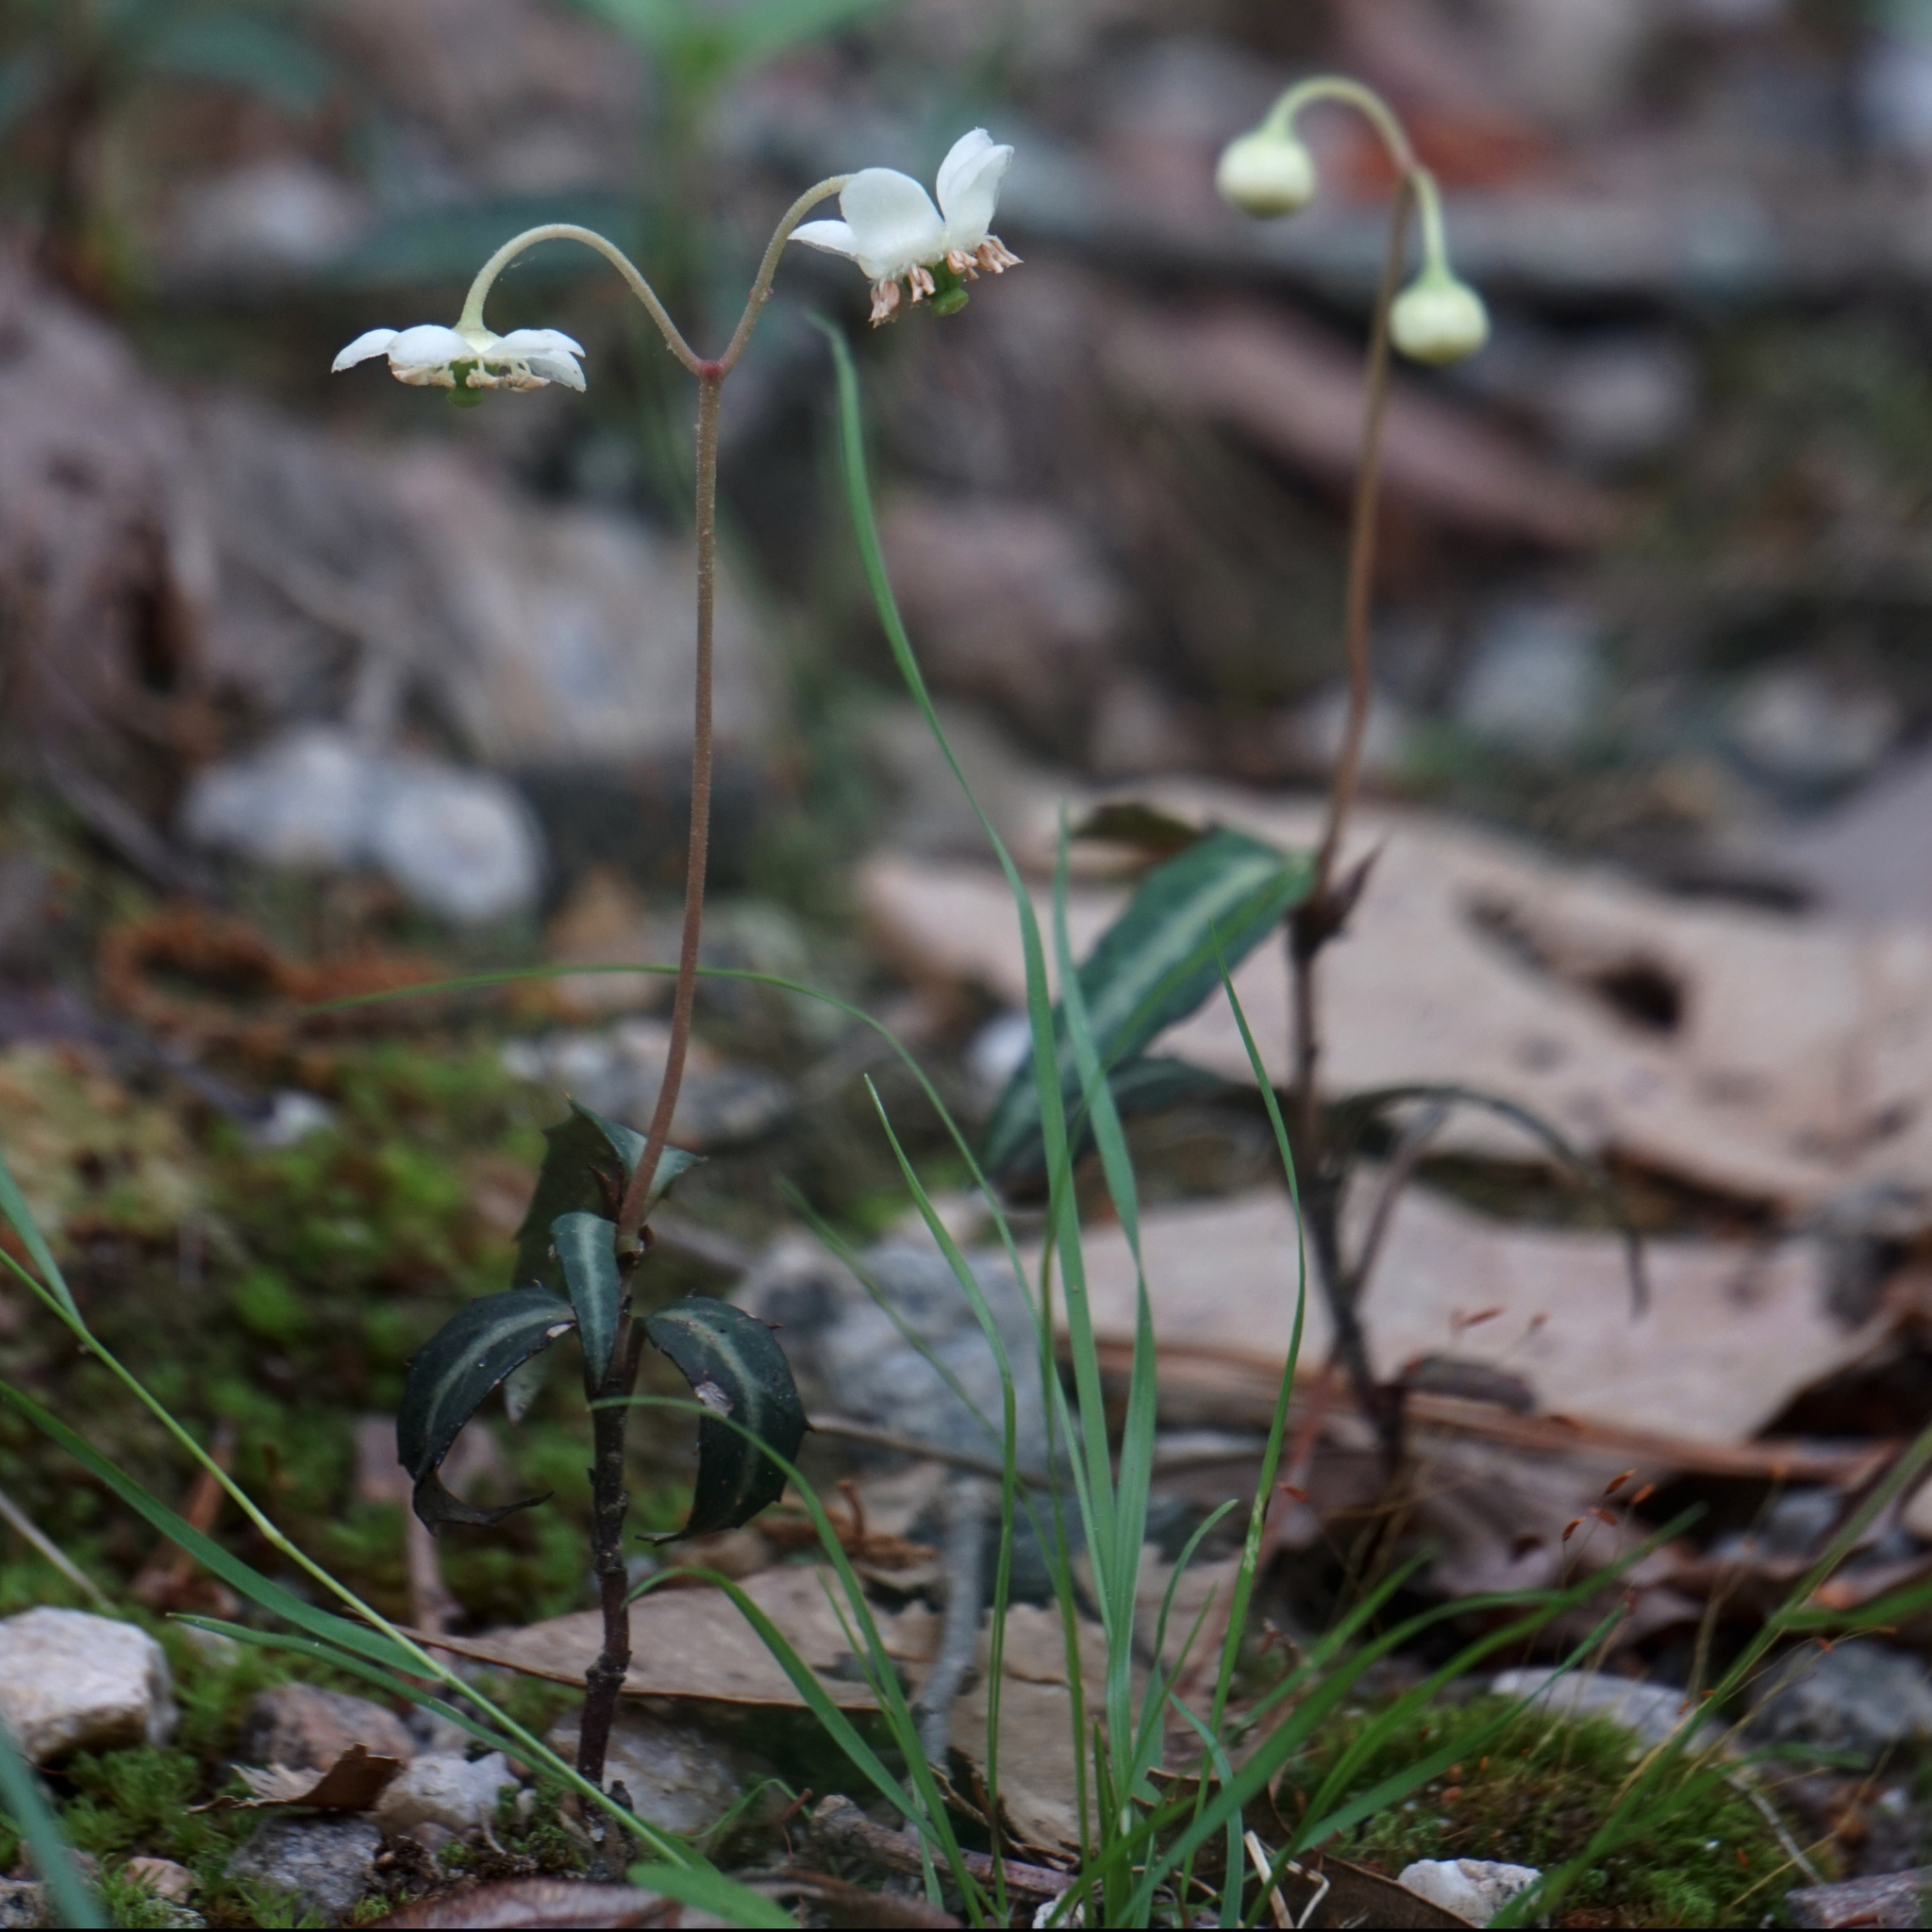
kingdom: Plantae
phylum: Tracheophyta
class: Magnoliopsida
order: Ericales
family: Ericaceae
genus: Chimaphila
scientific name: Chimaphila maculata
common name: Spotted pipsissewa
